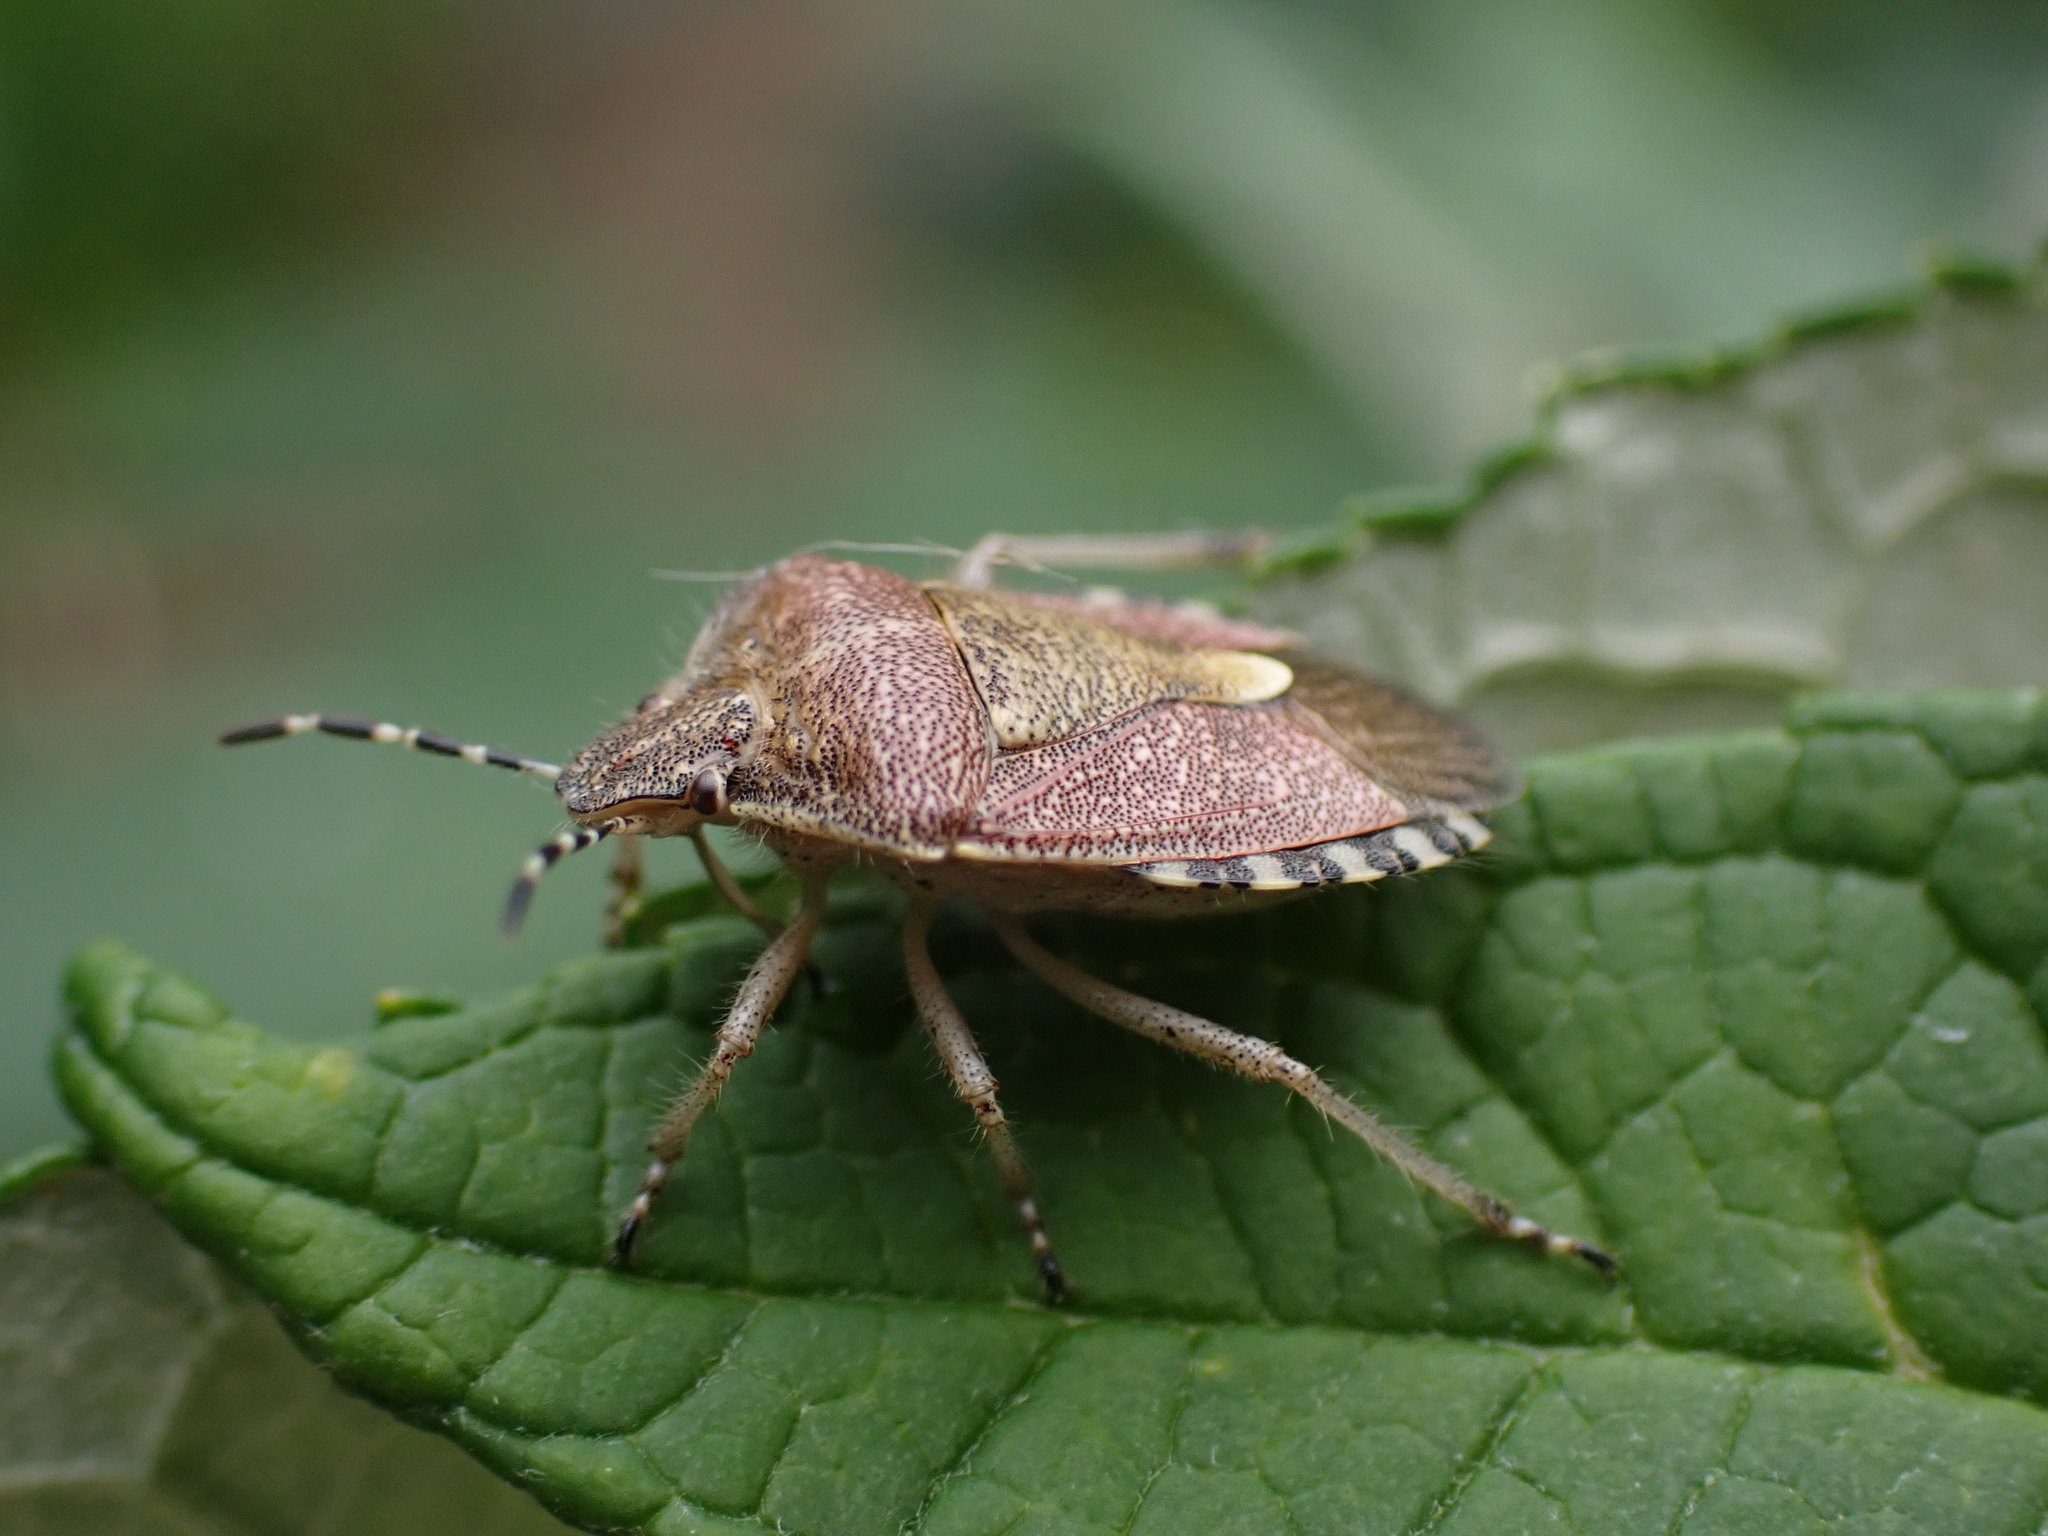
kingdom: Animalia
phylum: Arthropoda
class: Insecta
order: Hemiptera
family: Pentatomidae
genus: Dolycoris
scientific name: Dolycoris baccarum
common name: Sloe bug
